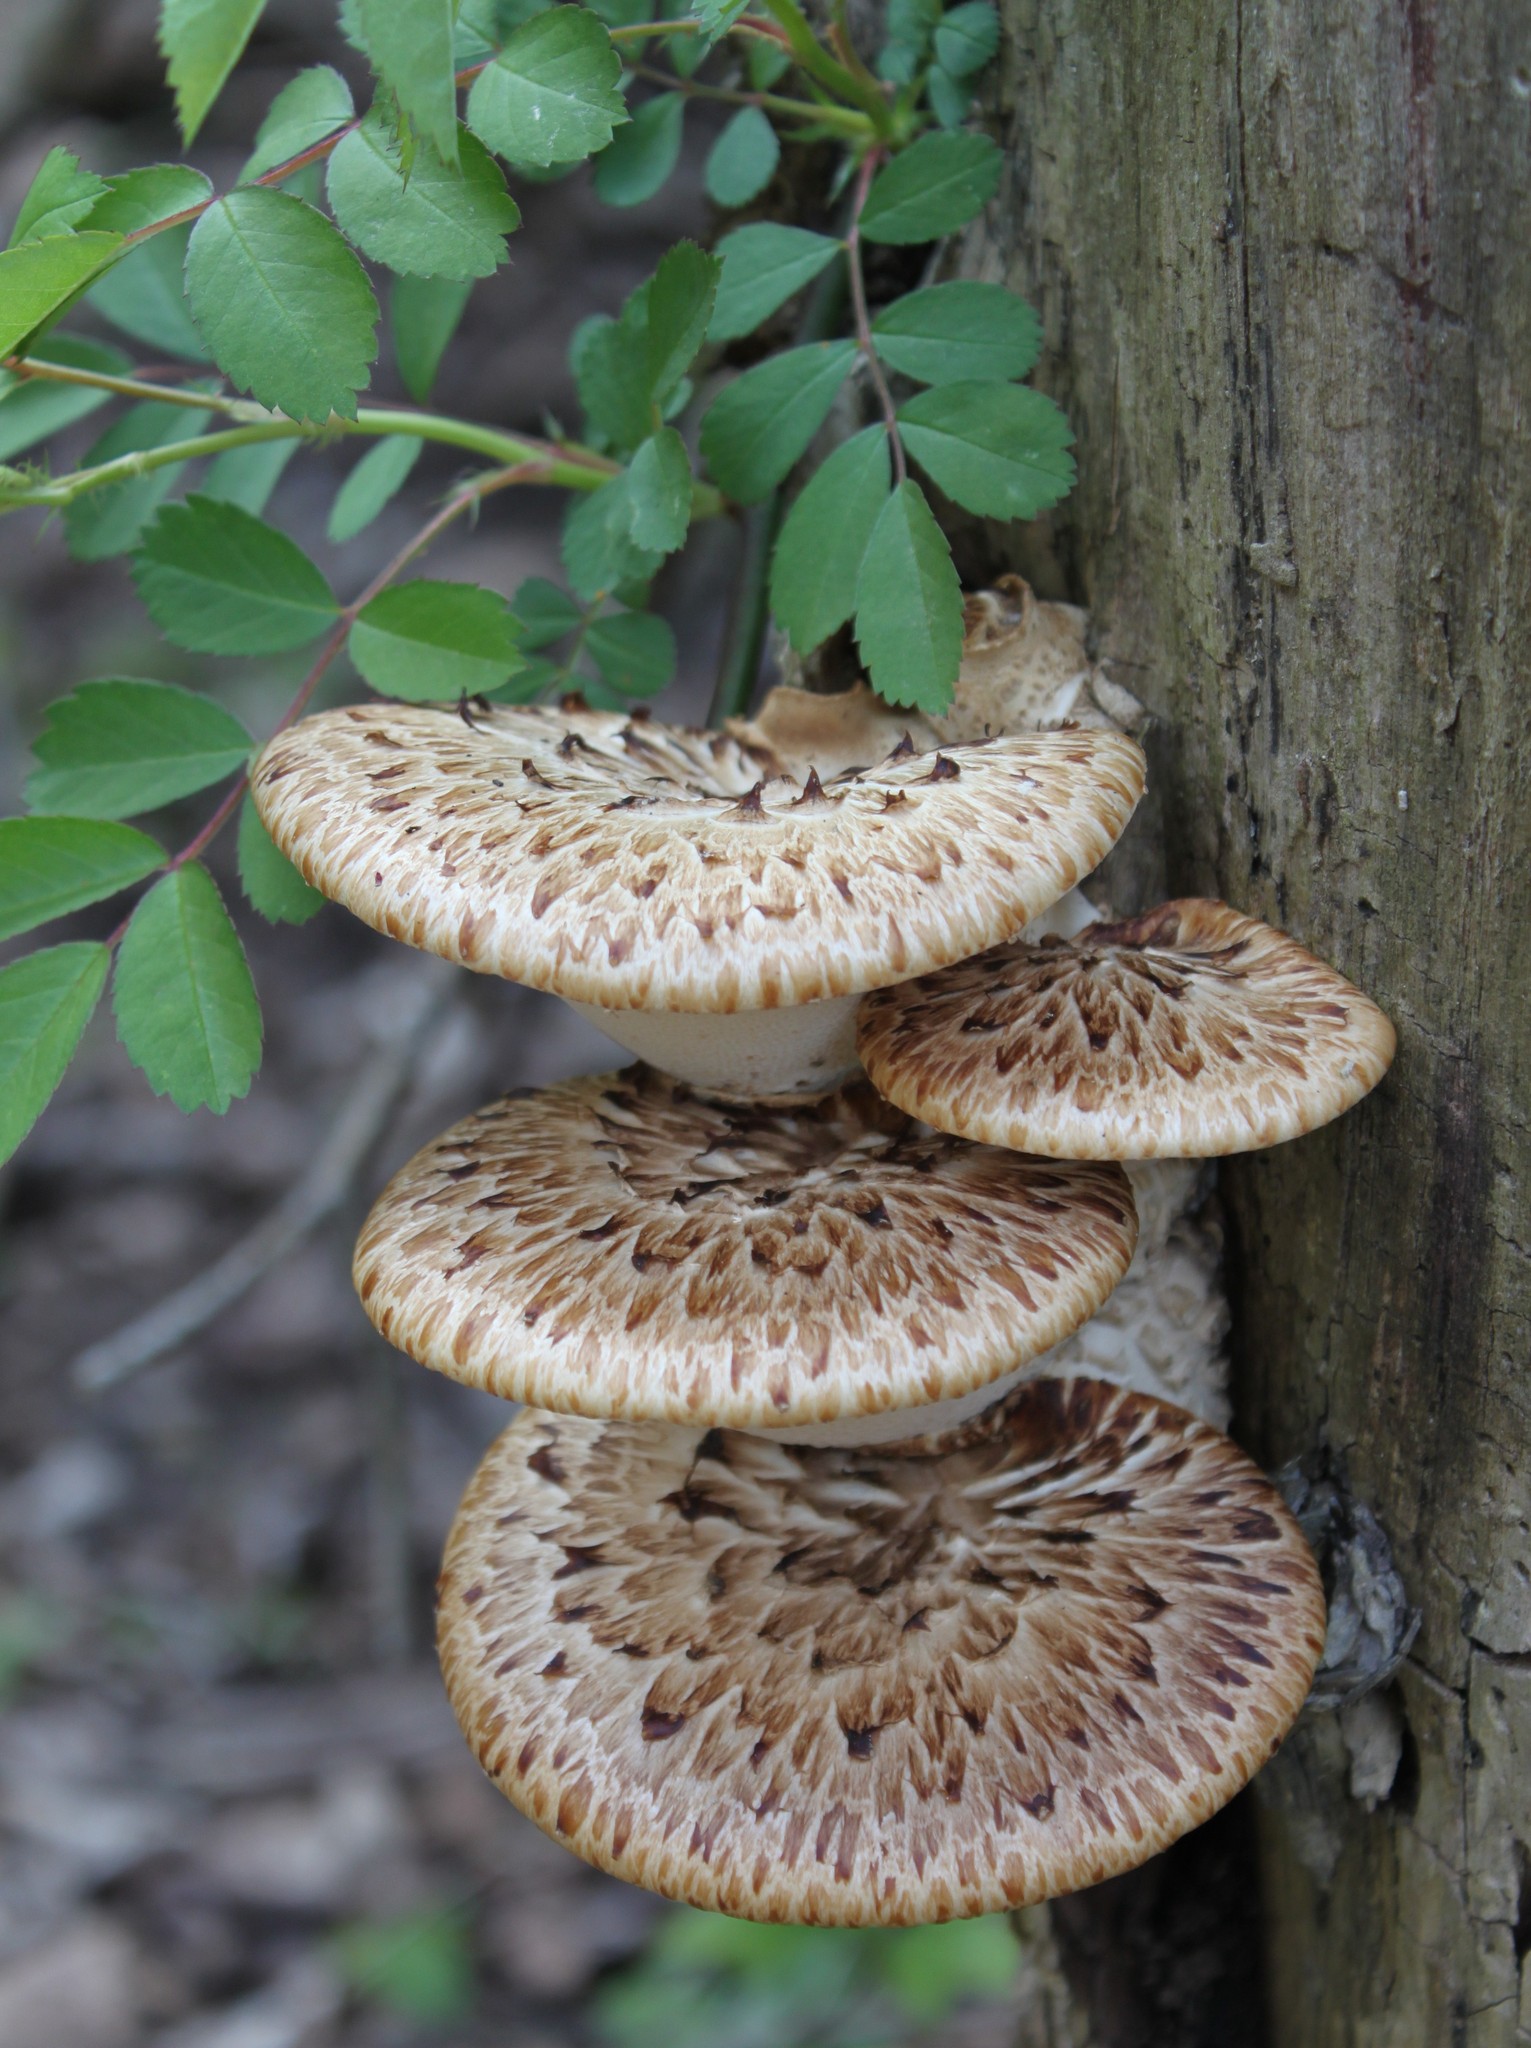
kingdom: Fungi
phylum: Basidiomycota
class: Agaricomycetes
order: Polyporales
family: Polyporaceae
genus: Cerioporus
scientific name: Cerioporus squamosus
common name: Dryad's saddle
